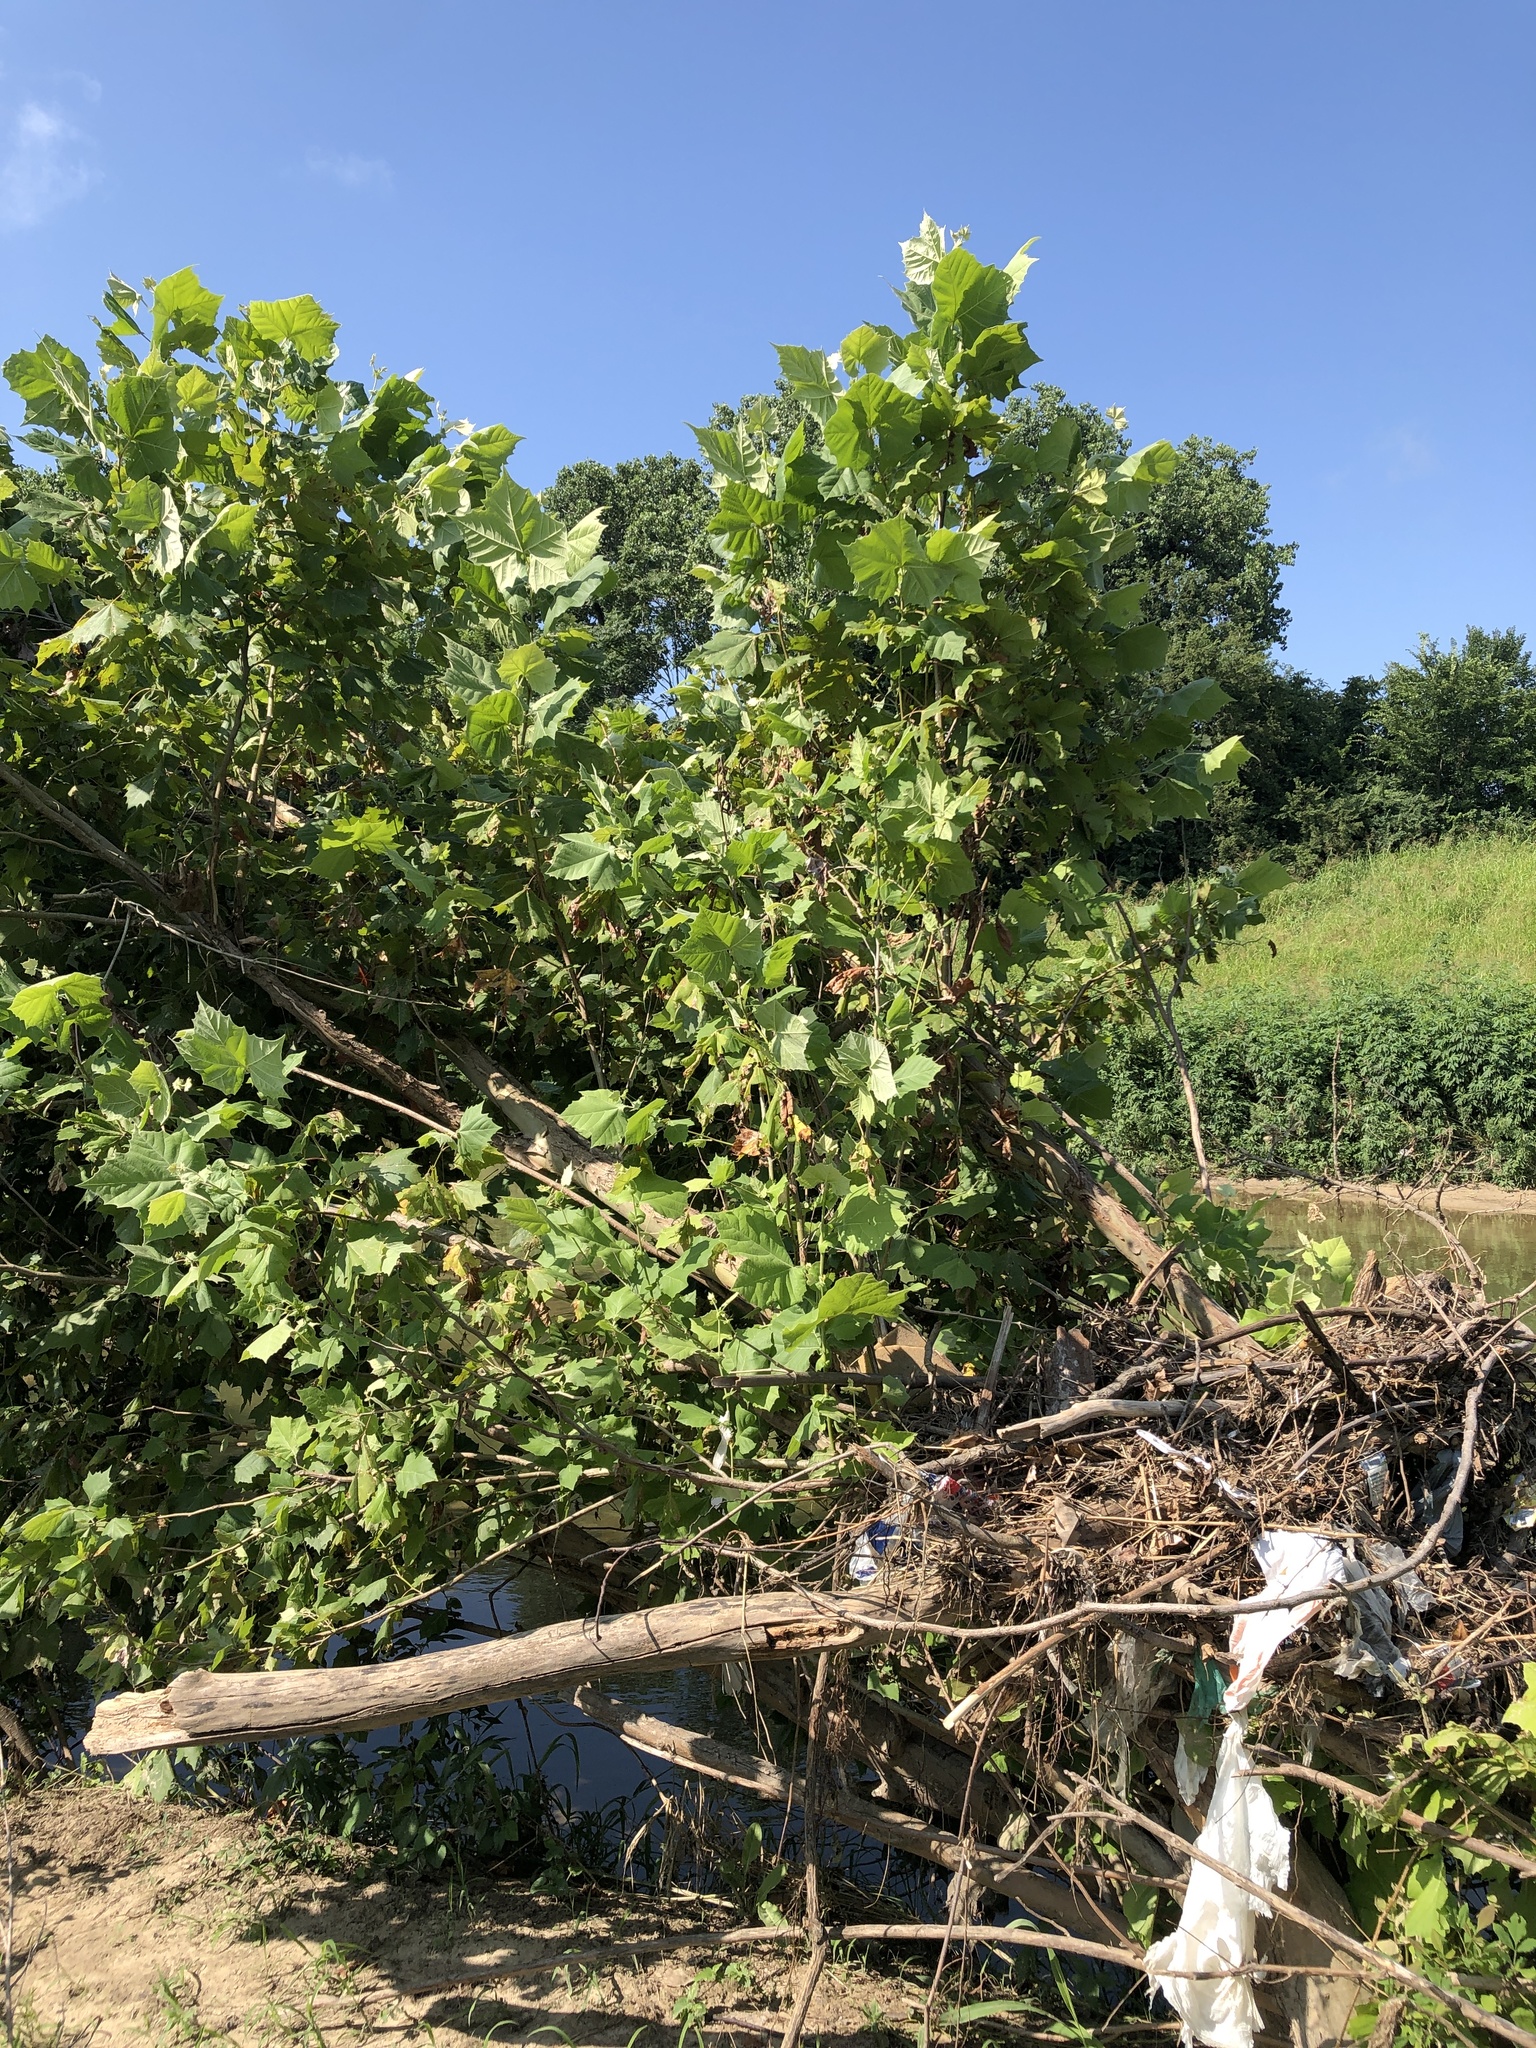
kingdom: Plantae
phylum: Tracheophyta
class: Magnoliopsida
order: Proteales
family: Platanaceae
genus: Platanus
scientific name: Platanus occidentalis
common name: American sycamore
